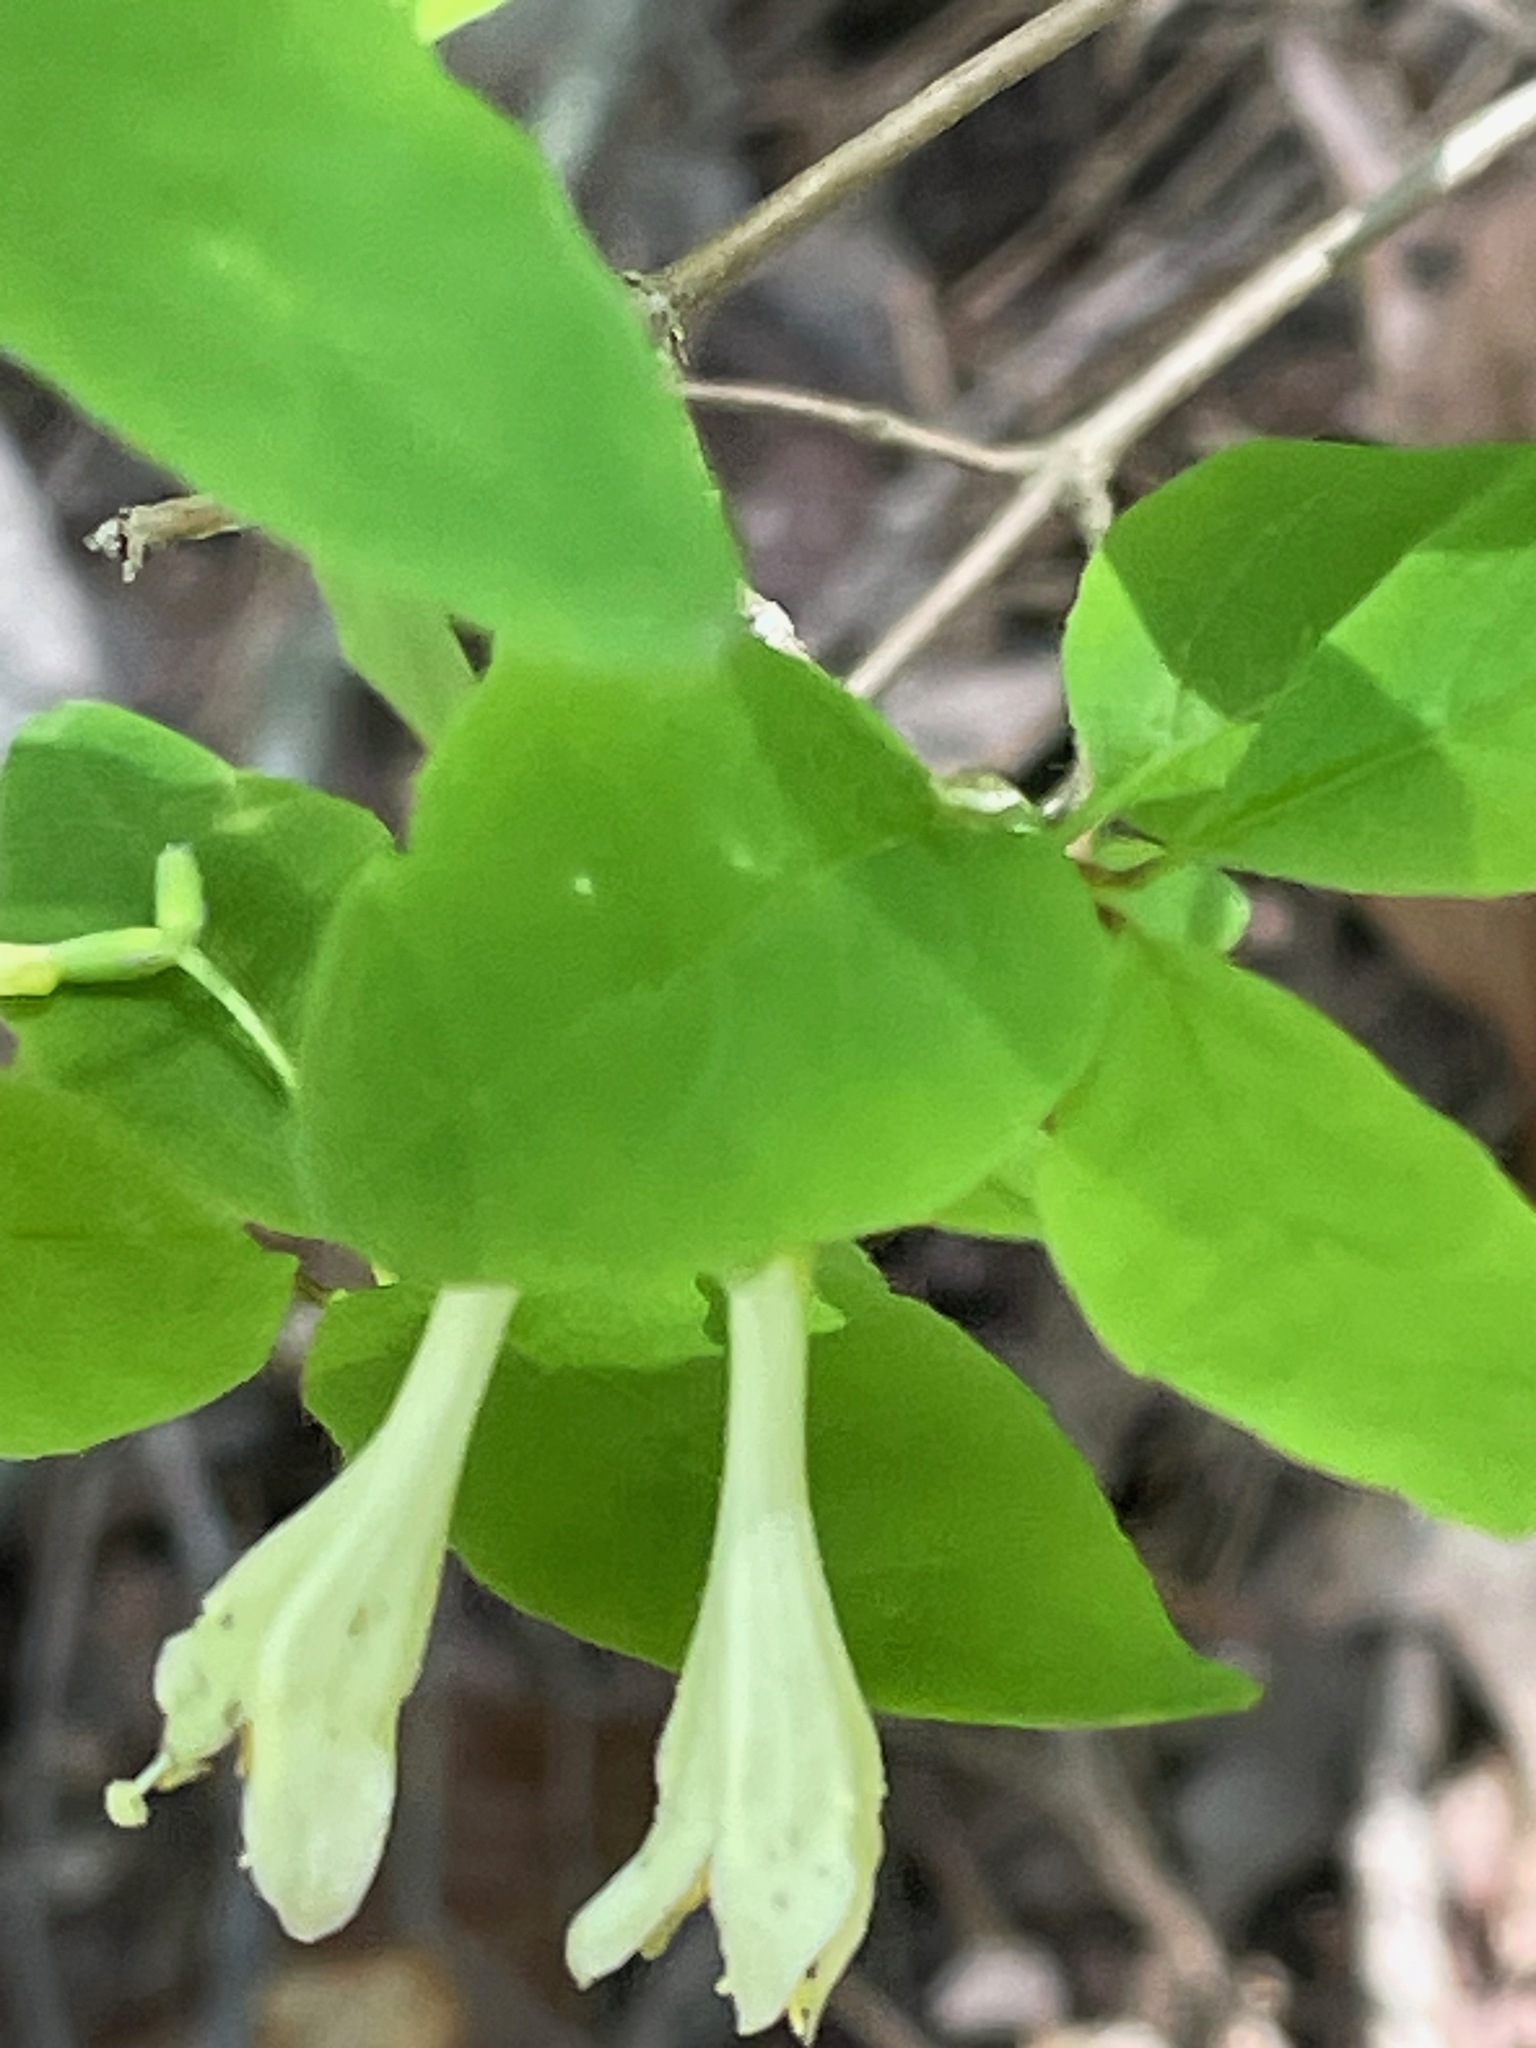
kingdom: Plantae
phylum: Tracheophyta
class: Magnoliopsida
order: Dipsacales
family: Caprifoliaceae
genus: Lonicera
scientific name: Lonicera canadensis
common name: American fly-honeysuckle
